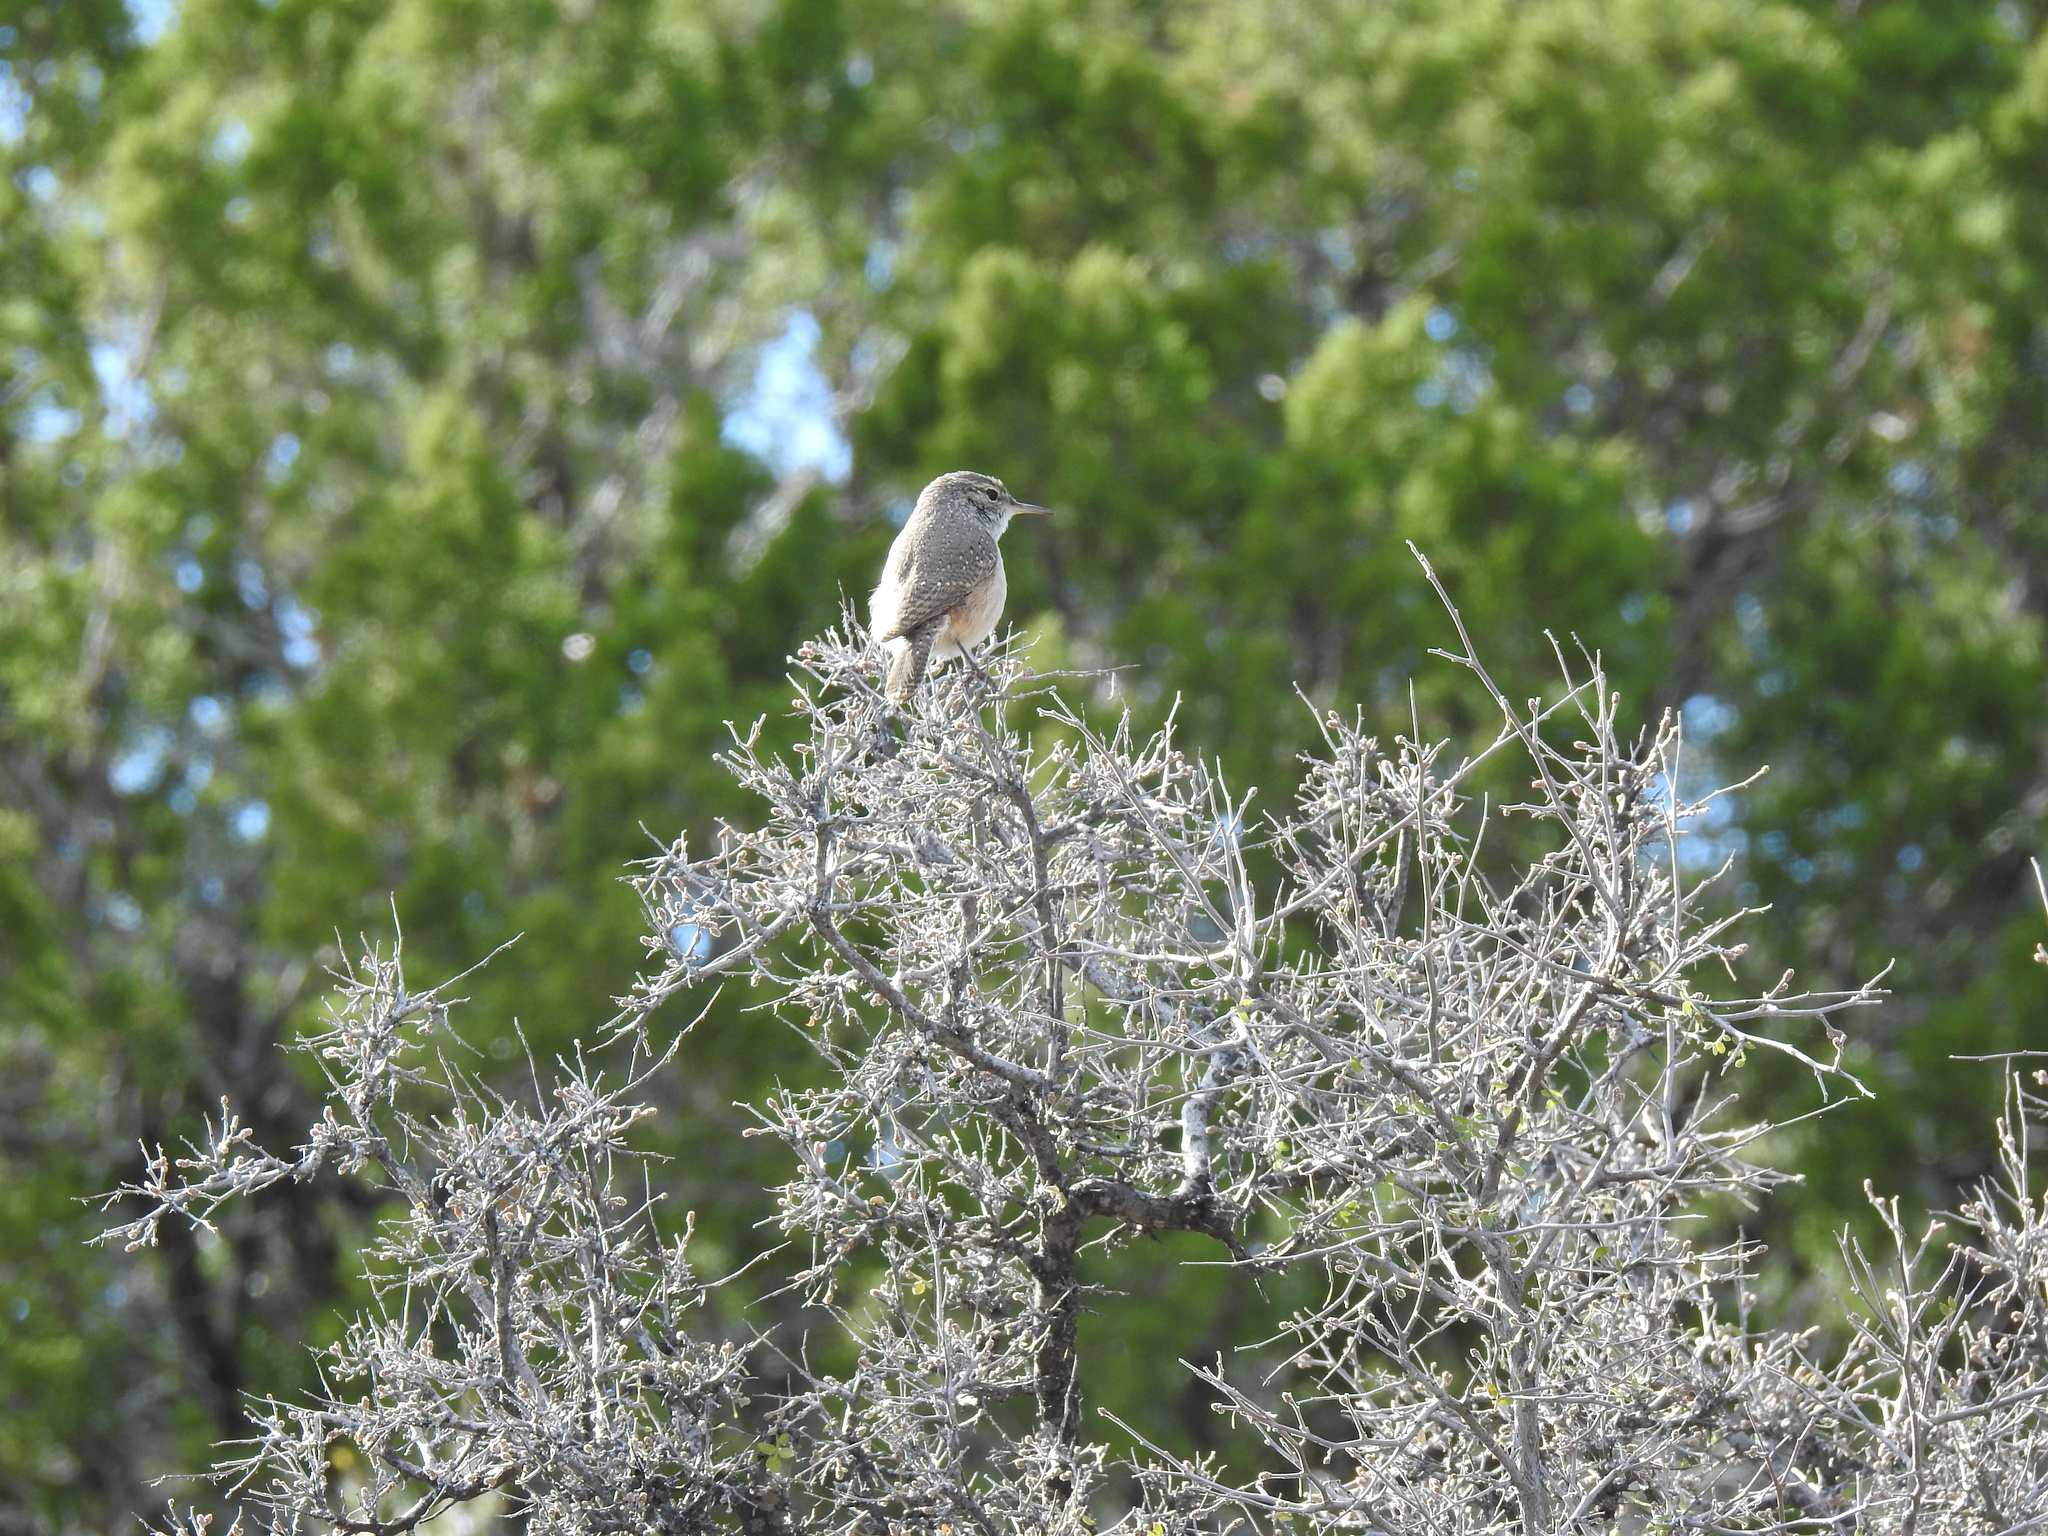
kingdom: Animalia
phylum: Chordata
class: Aves
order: Passeriformes
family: Troglodytidae
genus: Salpinctes
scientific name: Salpinctes obsoletus
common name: Rock wren
